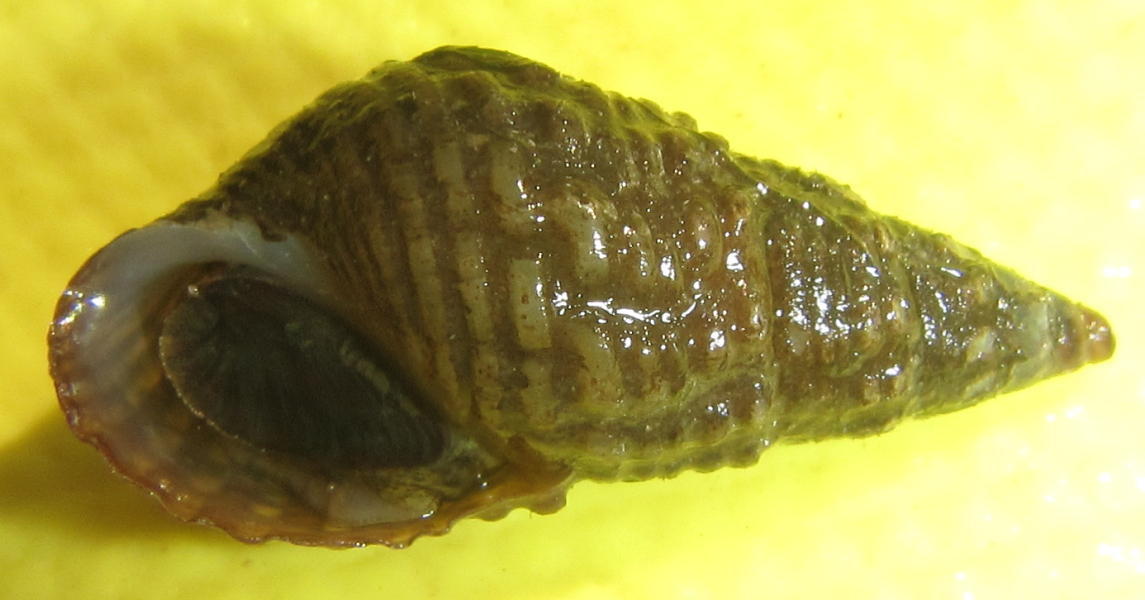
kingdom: Animalia
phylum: Mollusca
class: Gastropoda
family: Thiaridae
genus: Tarebia
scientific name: Tarebia granifera
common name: Quilted melania
